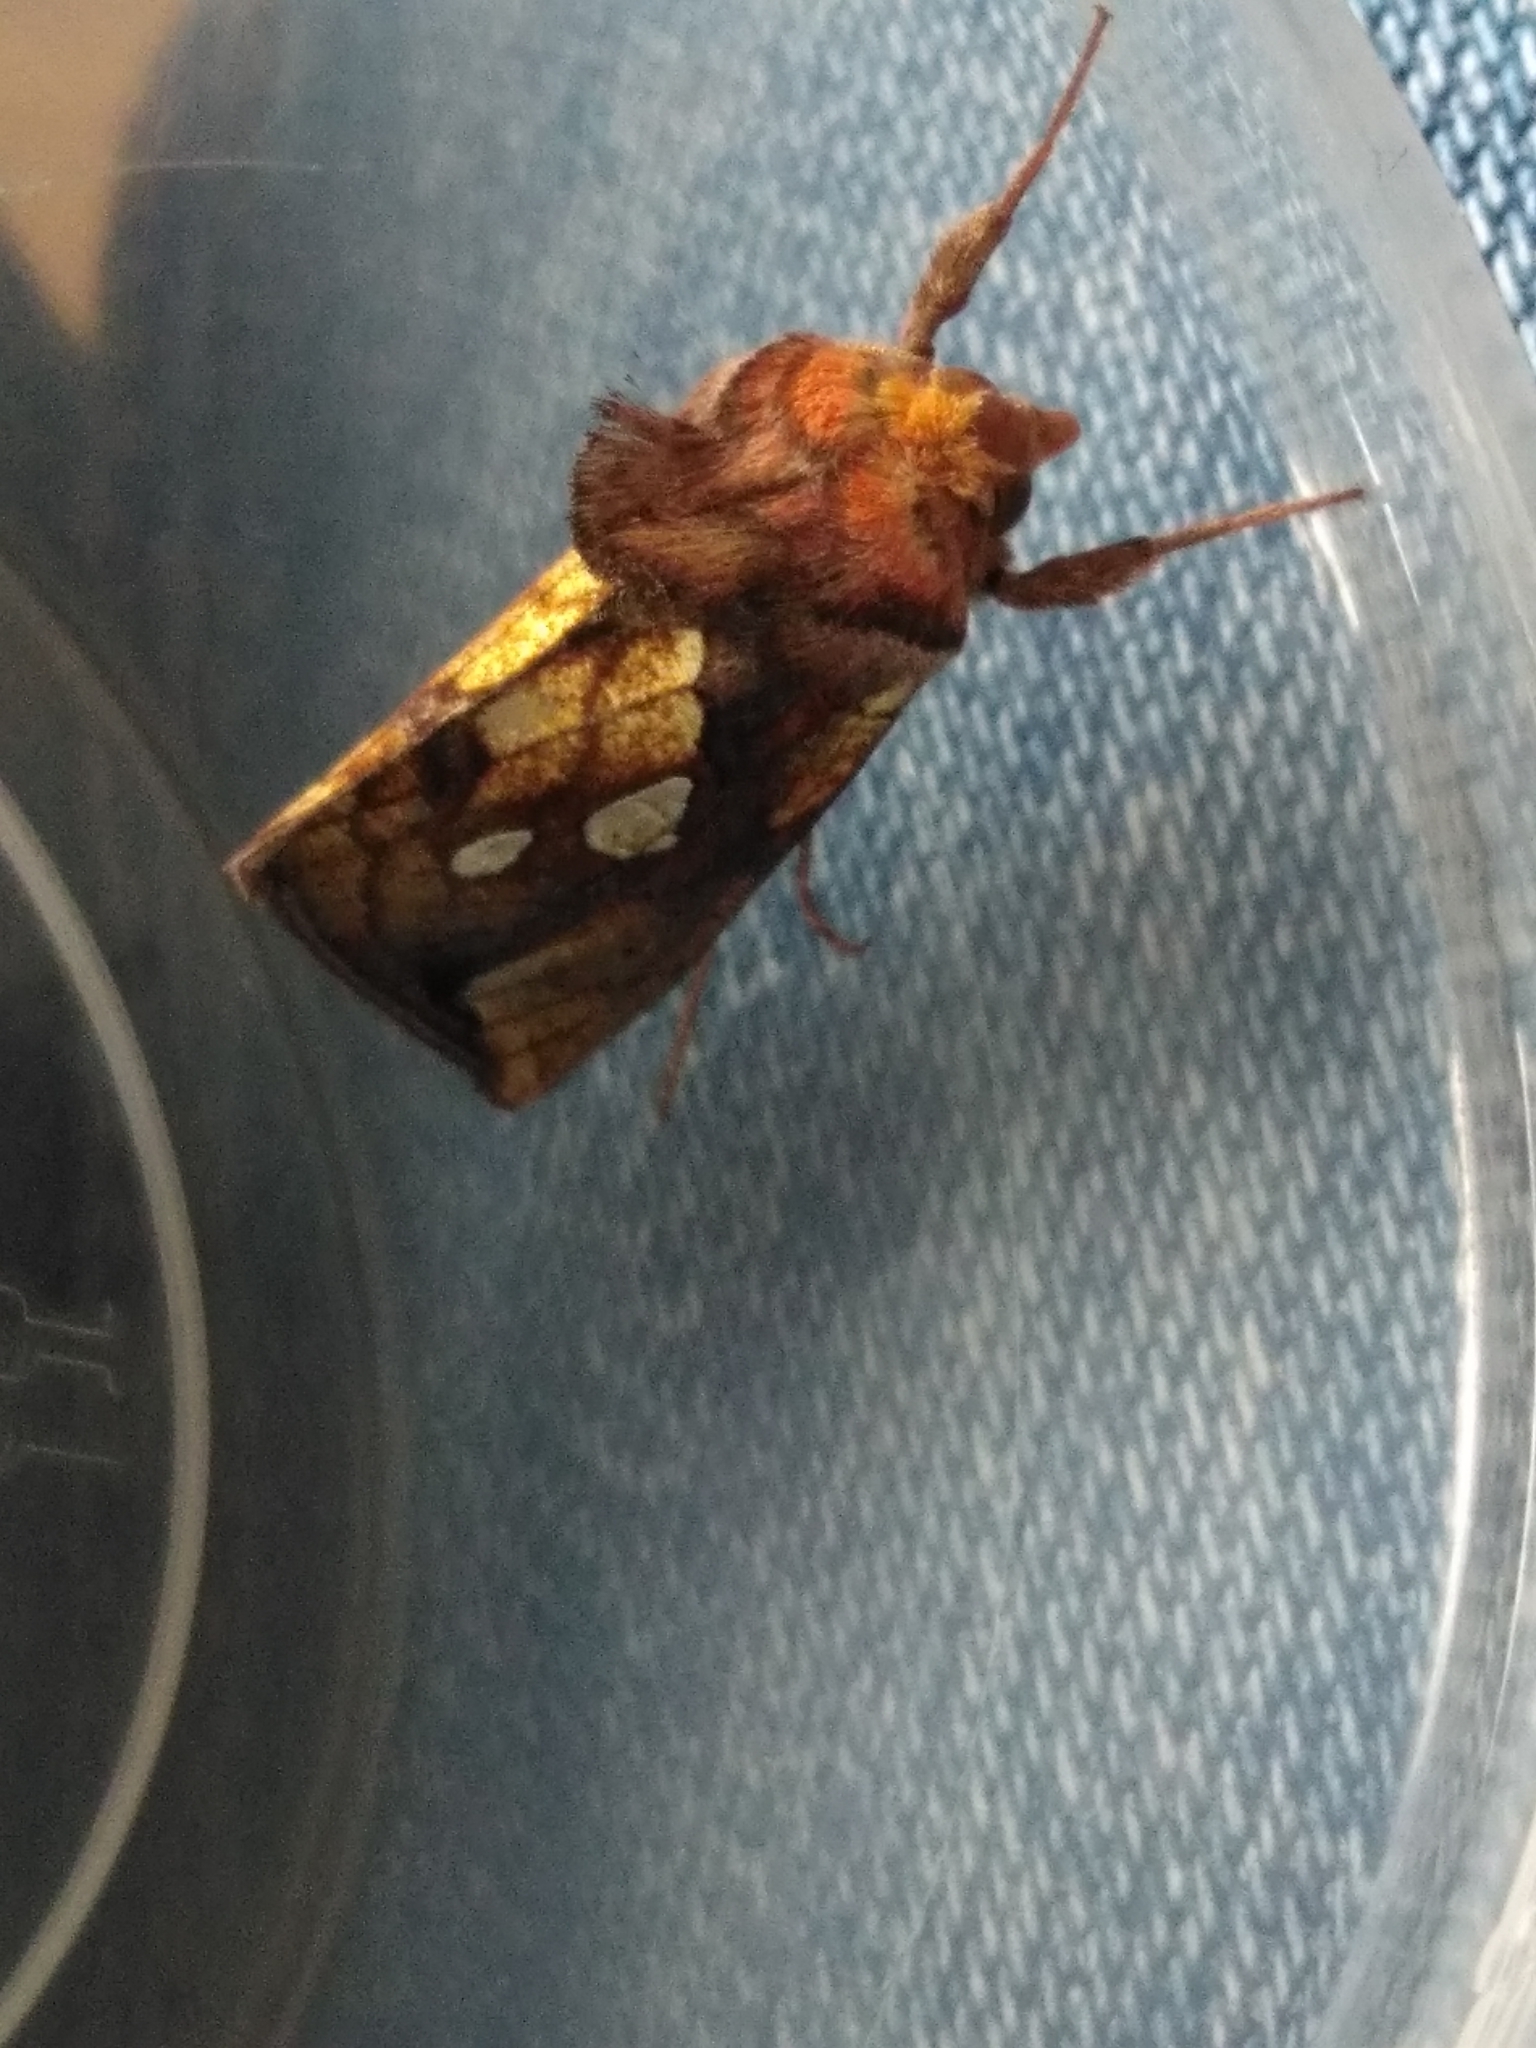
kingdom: Animalia
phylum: Arthropoda
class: Insecta
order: Lepidoptera
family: Noctuidae
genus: Plusia
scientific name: Plusia festucae
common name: Gold spot
